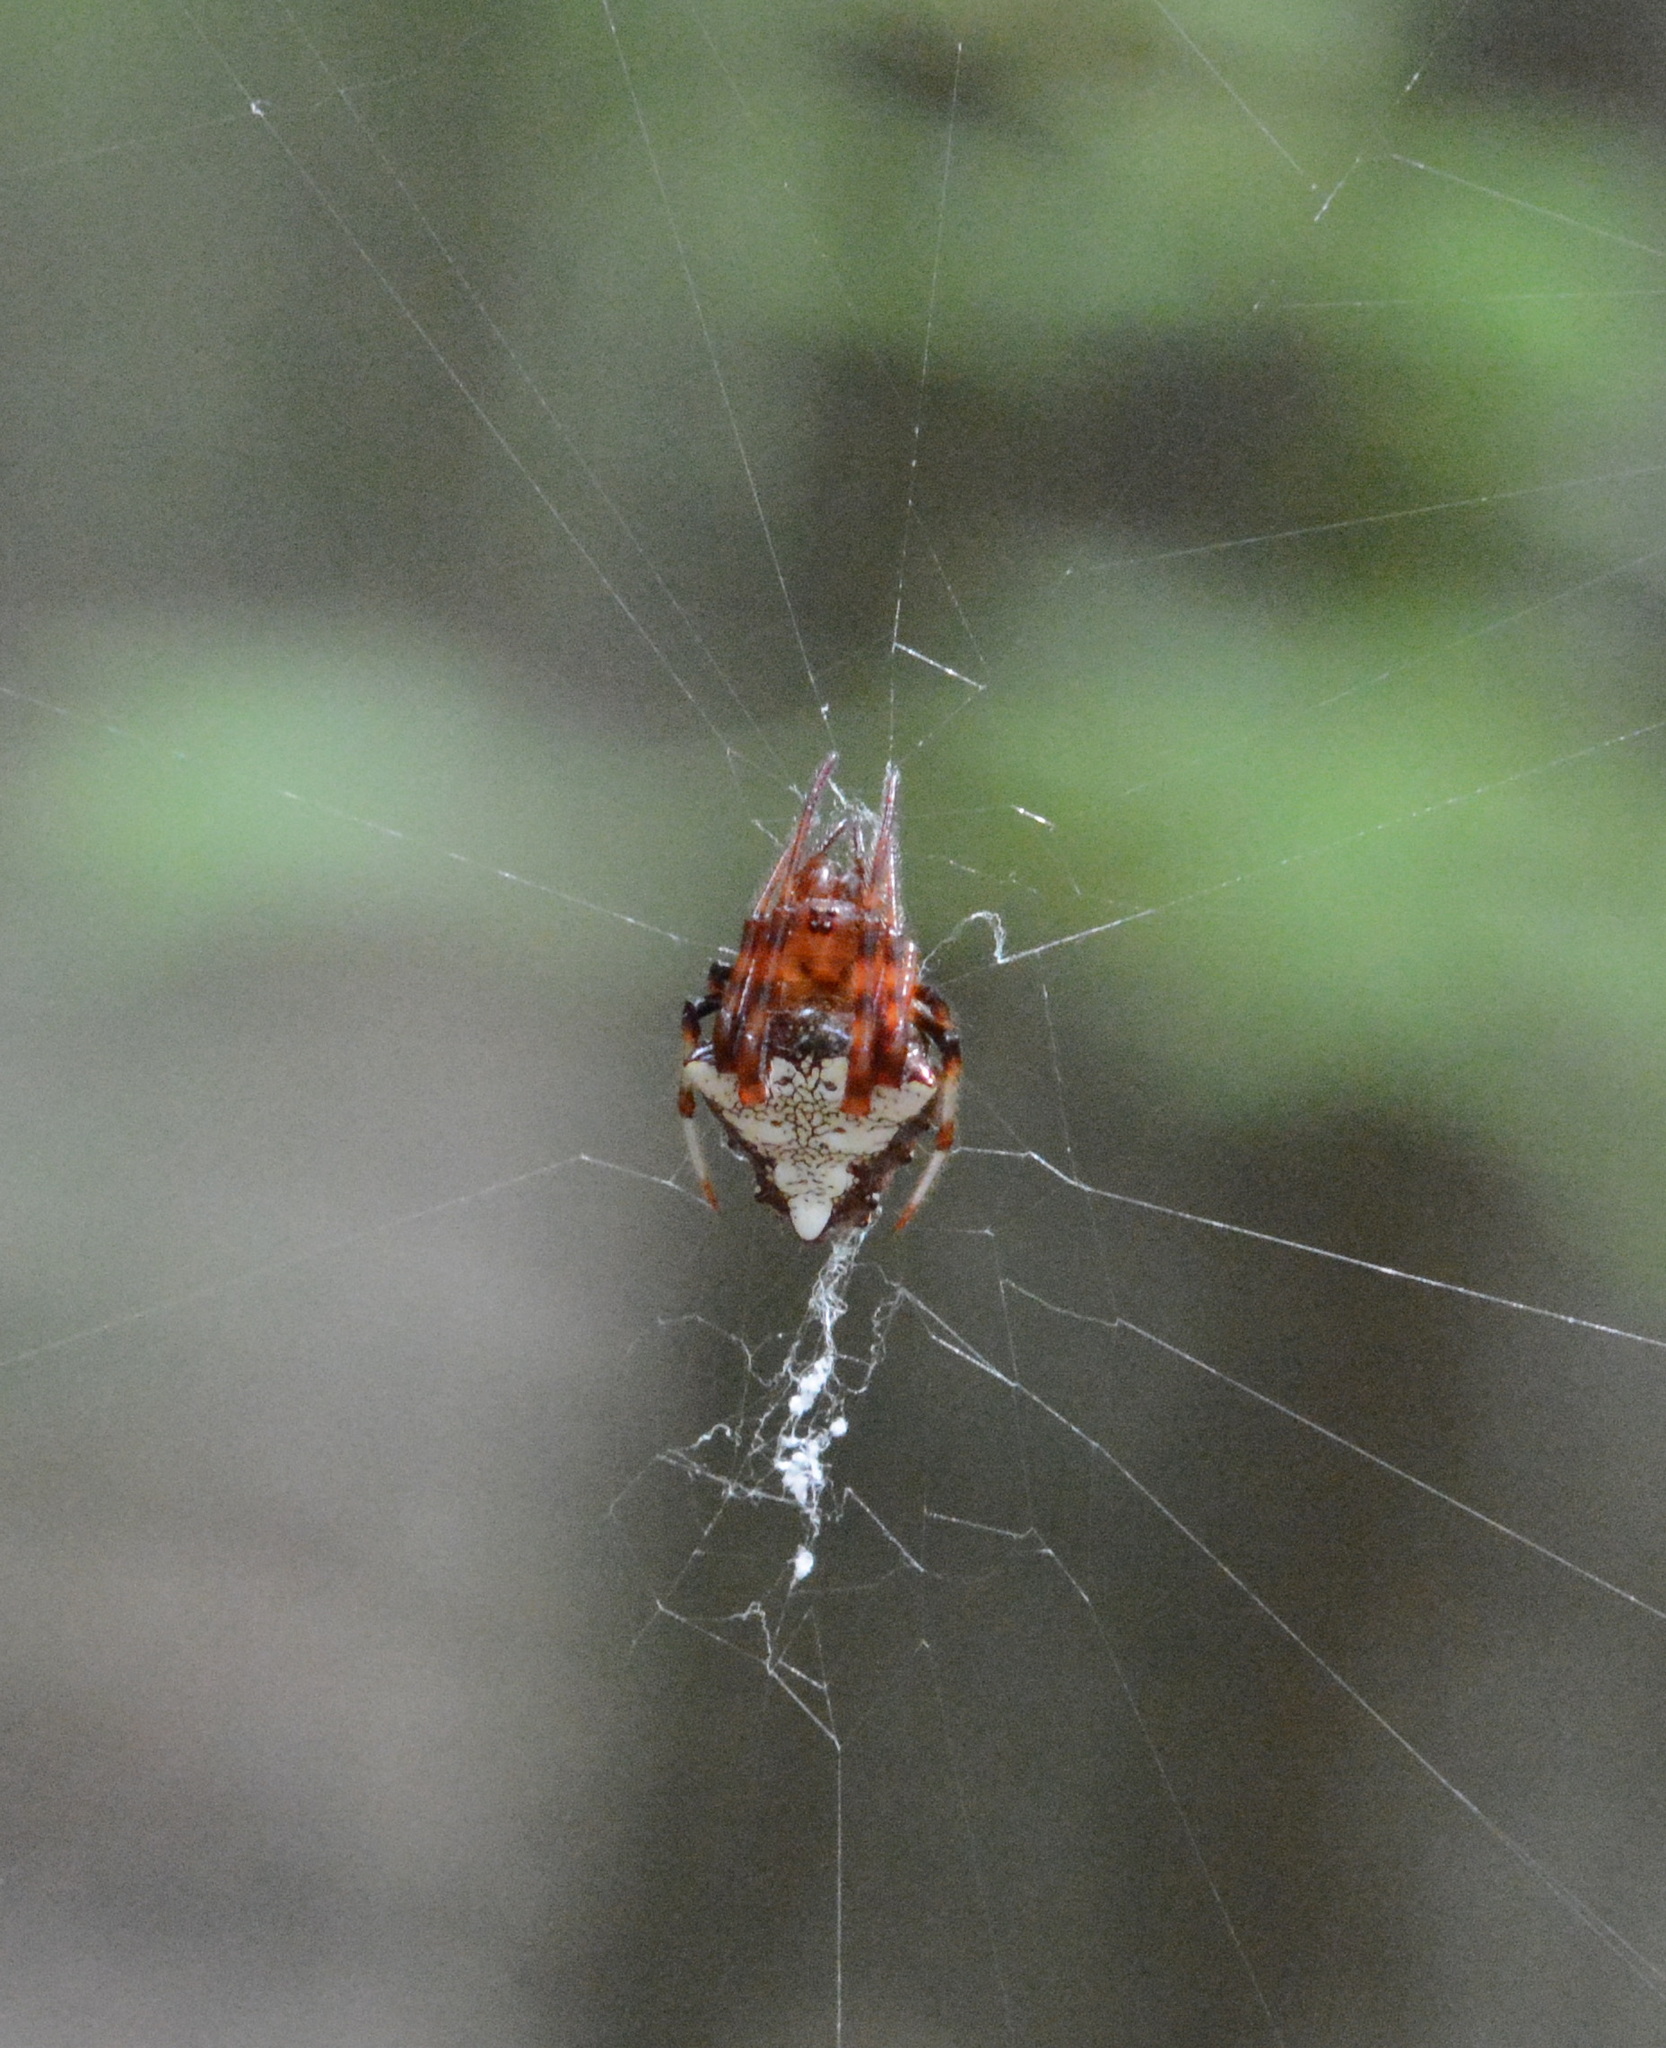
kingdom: Animalia
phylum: Arthropoda
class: Arachnida
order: Araneae
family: Araneidae
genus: Verrucosa
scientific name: Verrucosa arenata
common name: Orb weavers
